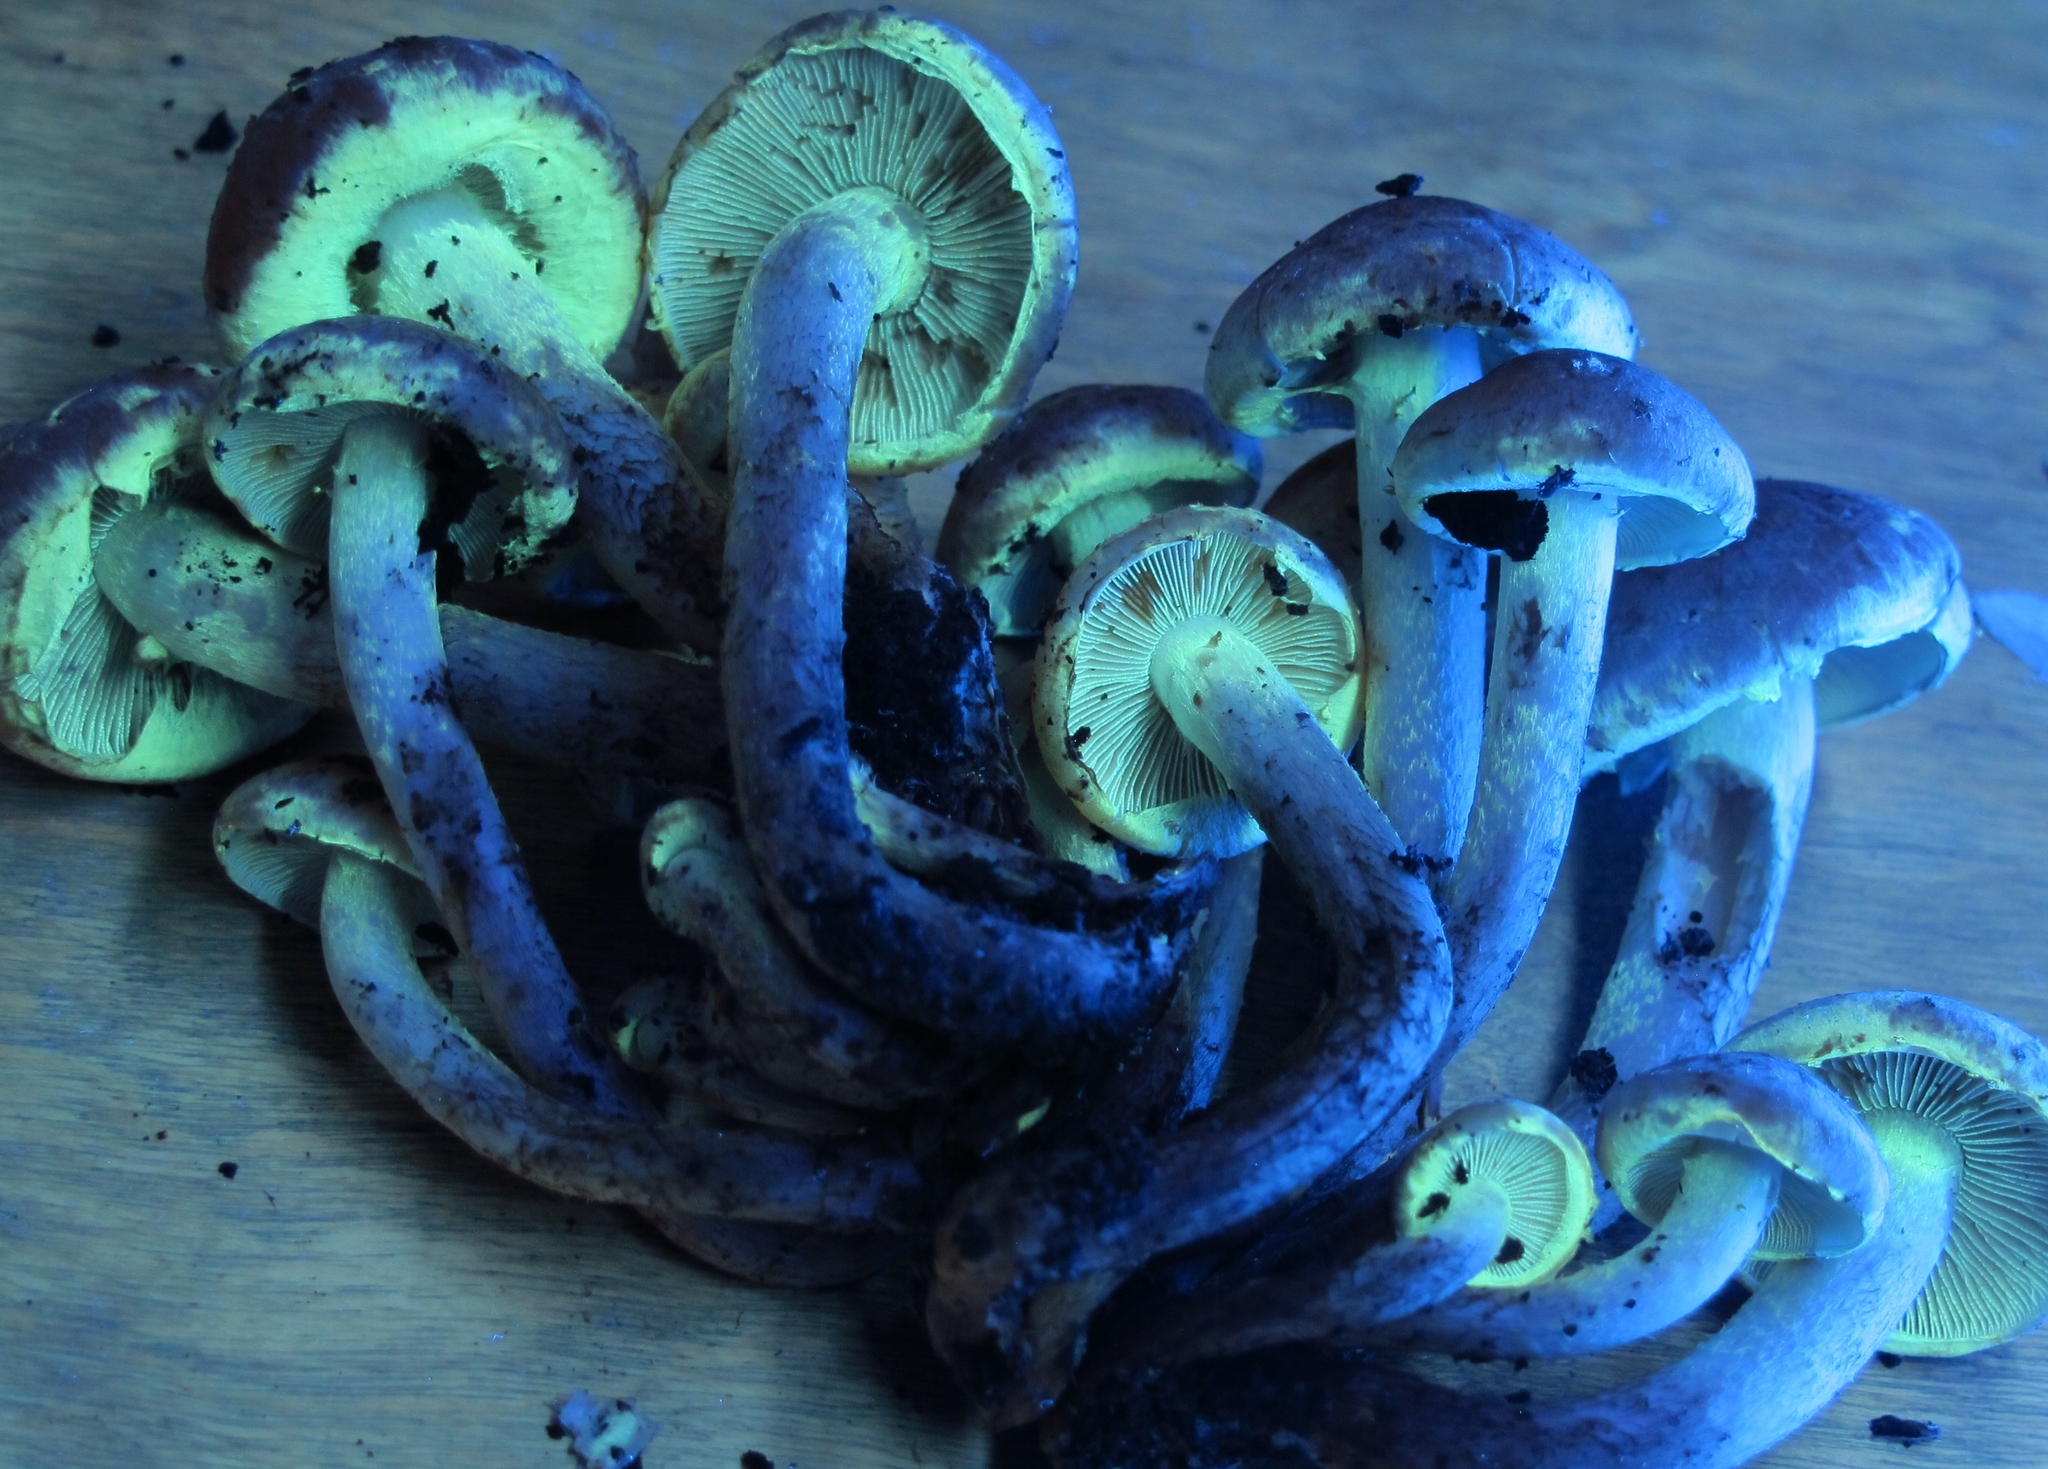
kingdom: Fungi
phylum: Basidiomycota
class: Agaricomycetes
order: Agaricales
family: Strophariaceae
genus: Hypholoma
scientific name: Hypholoma lateritium
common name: Brick caps
